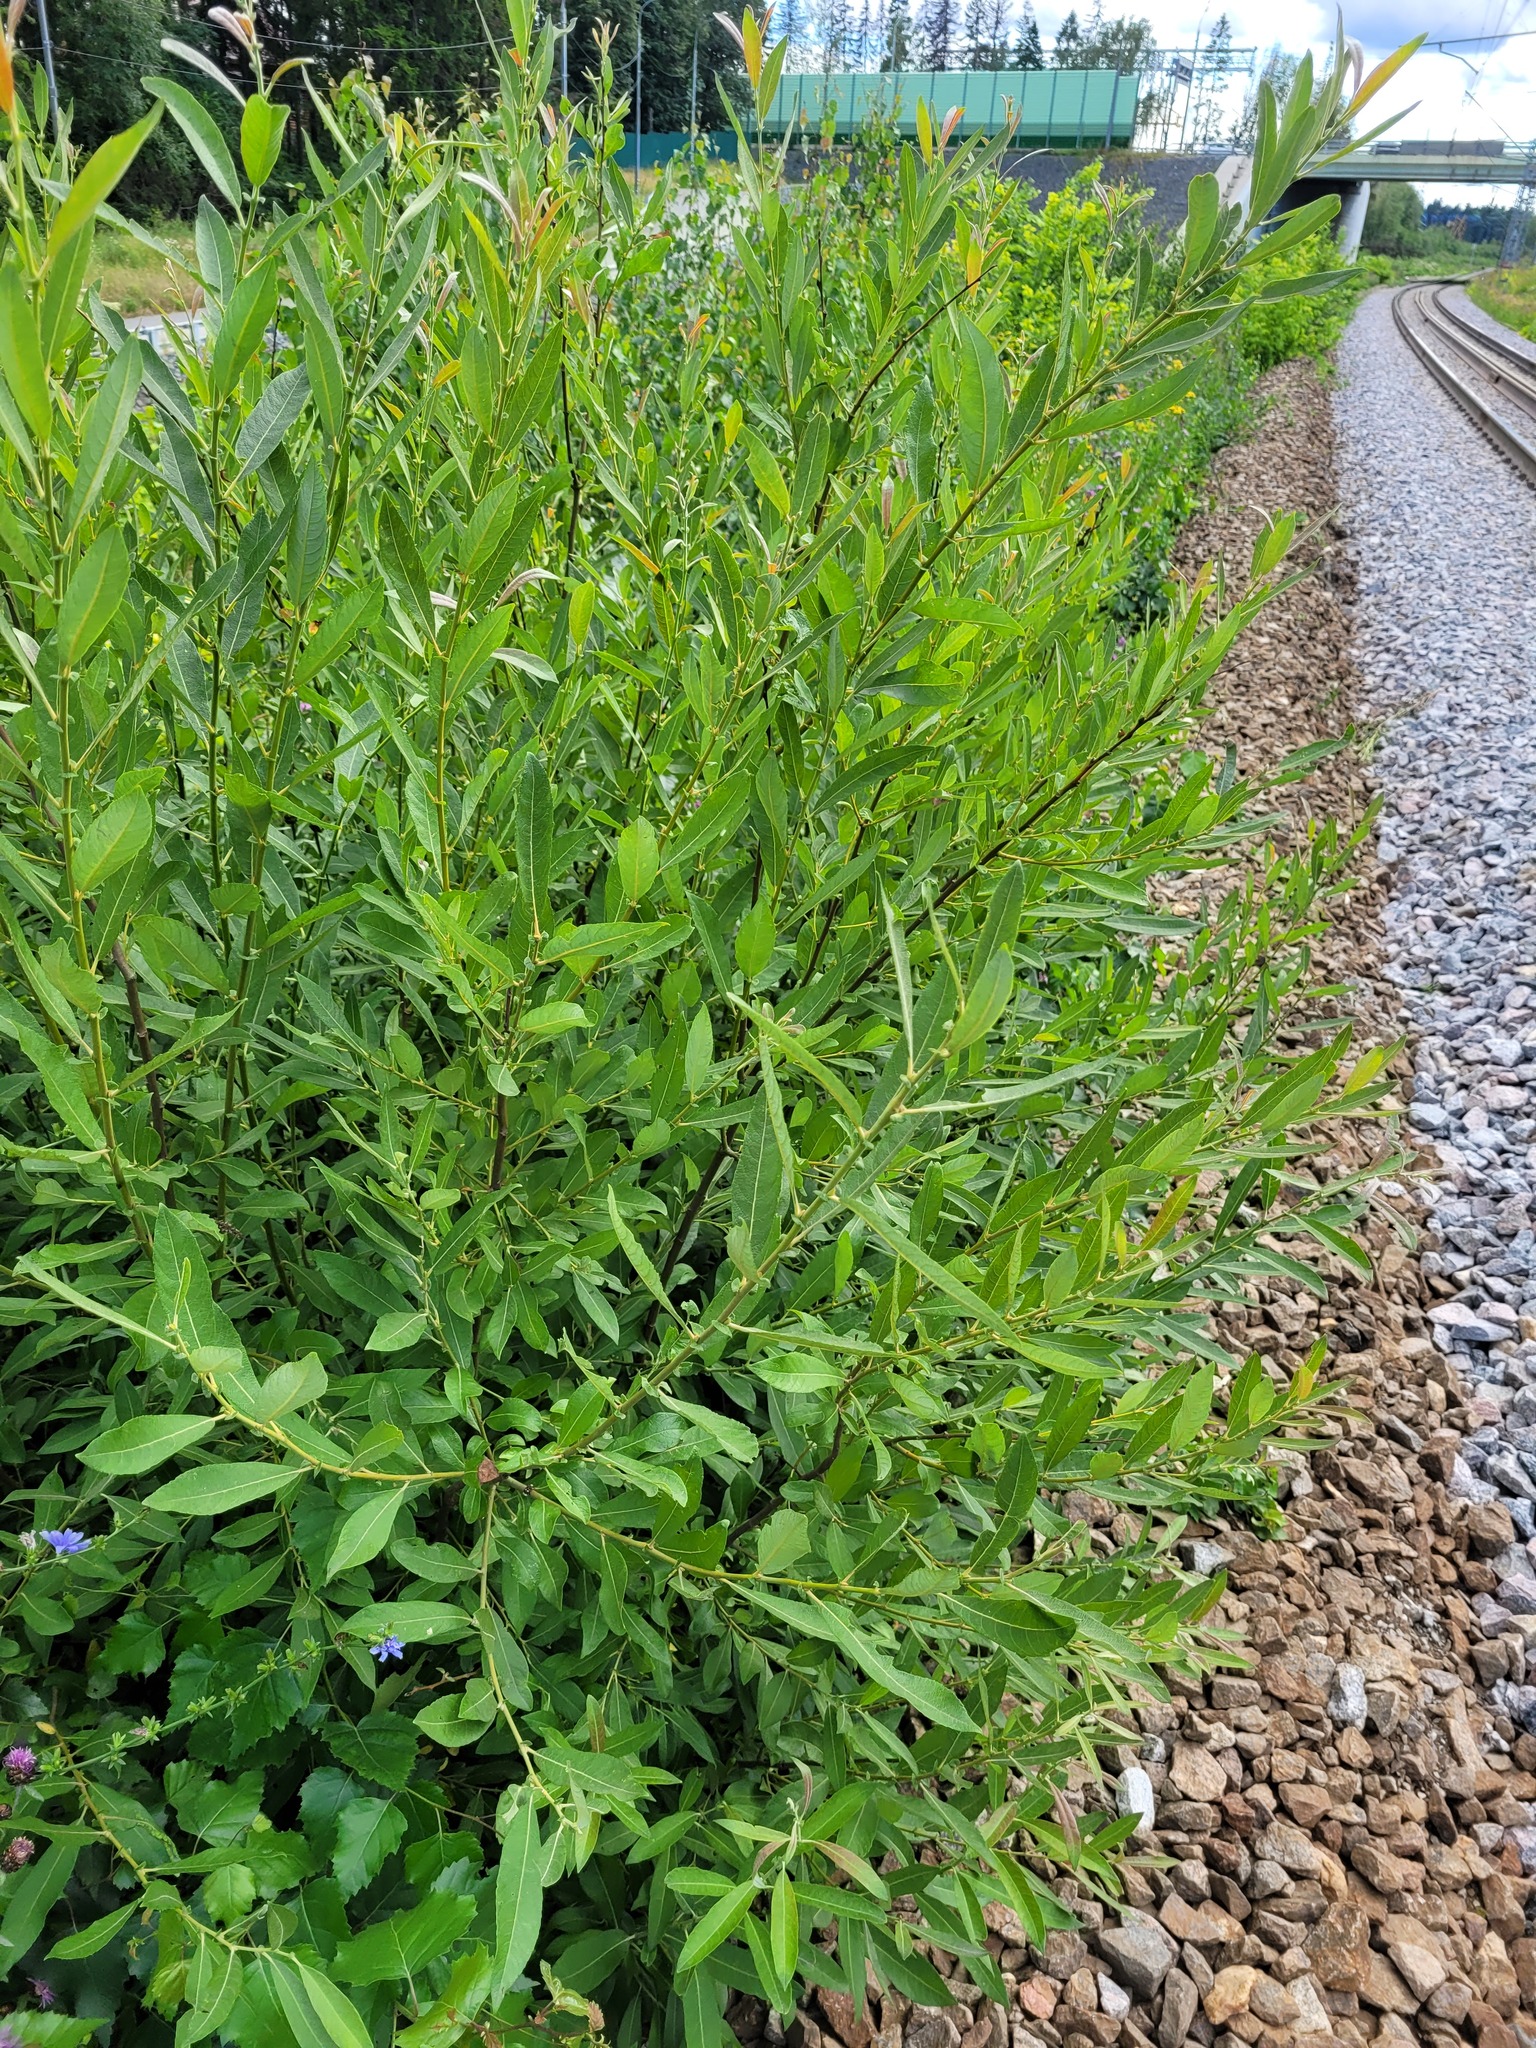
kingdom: Plantae
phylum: Tracheophyta
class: Magnoliopsida
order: Malpighiales
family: Salicaceae
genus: Salix
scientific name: Salix cinerea
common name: Common sallow
